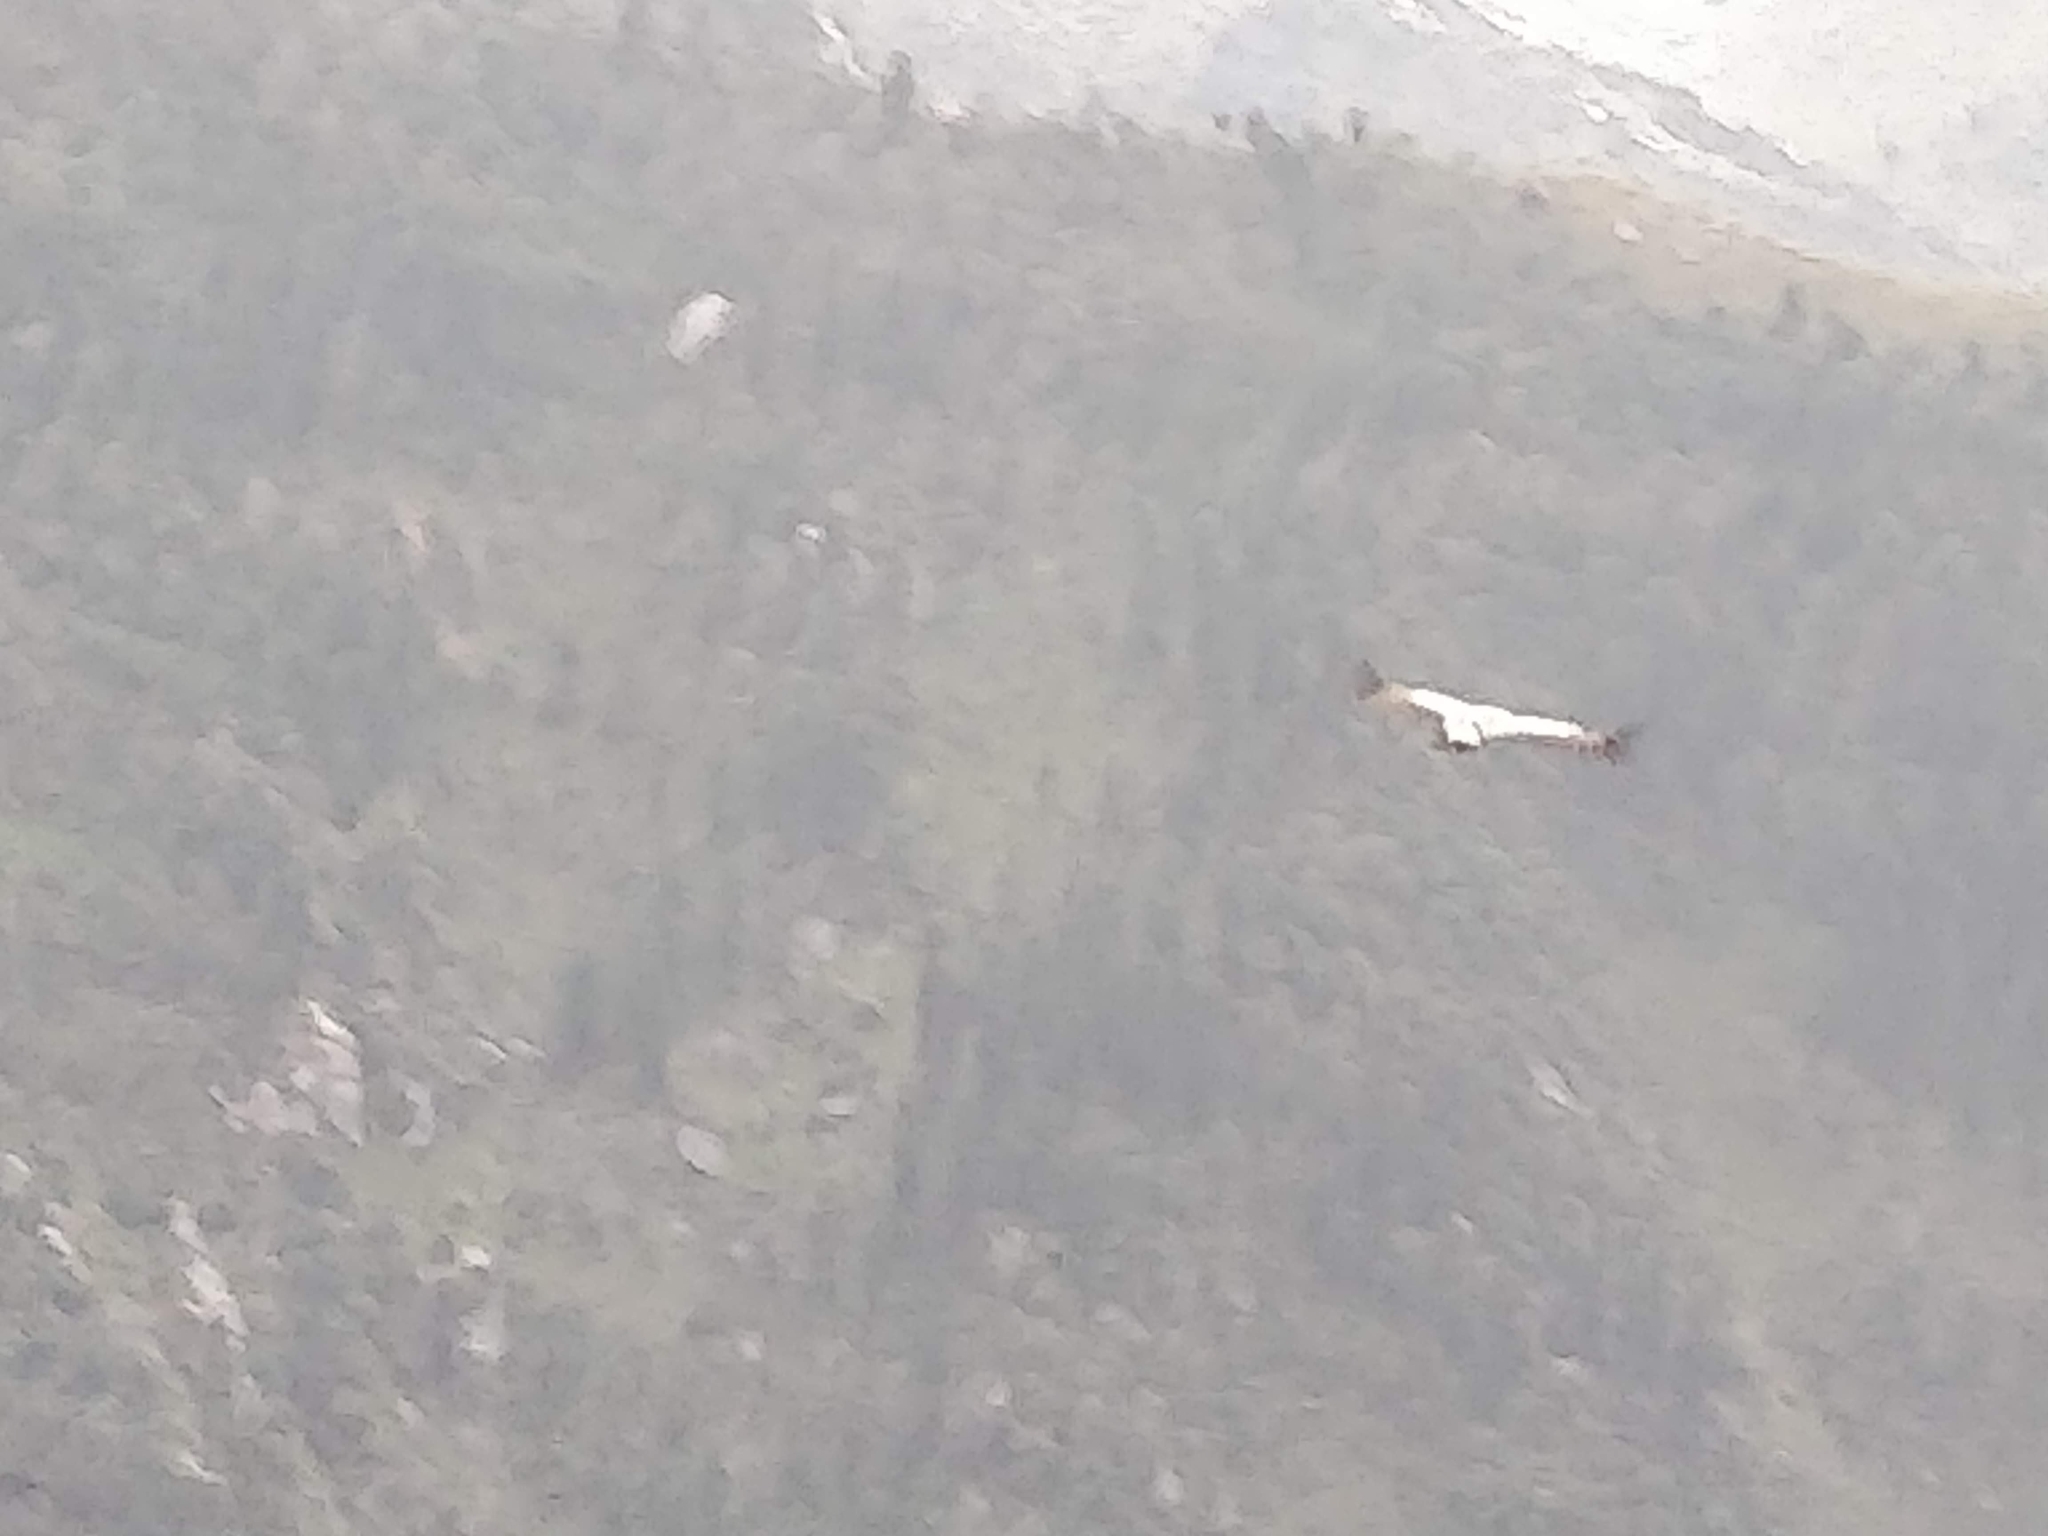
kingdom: Animalia
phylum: Chordata
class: Aves
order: Accipitriformes
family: Accipitridae
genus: Gyps
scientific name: Gyps himalayensis
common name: Himalayan griffon
